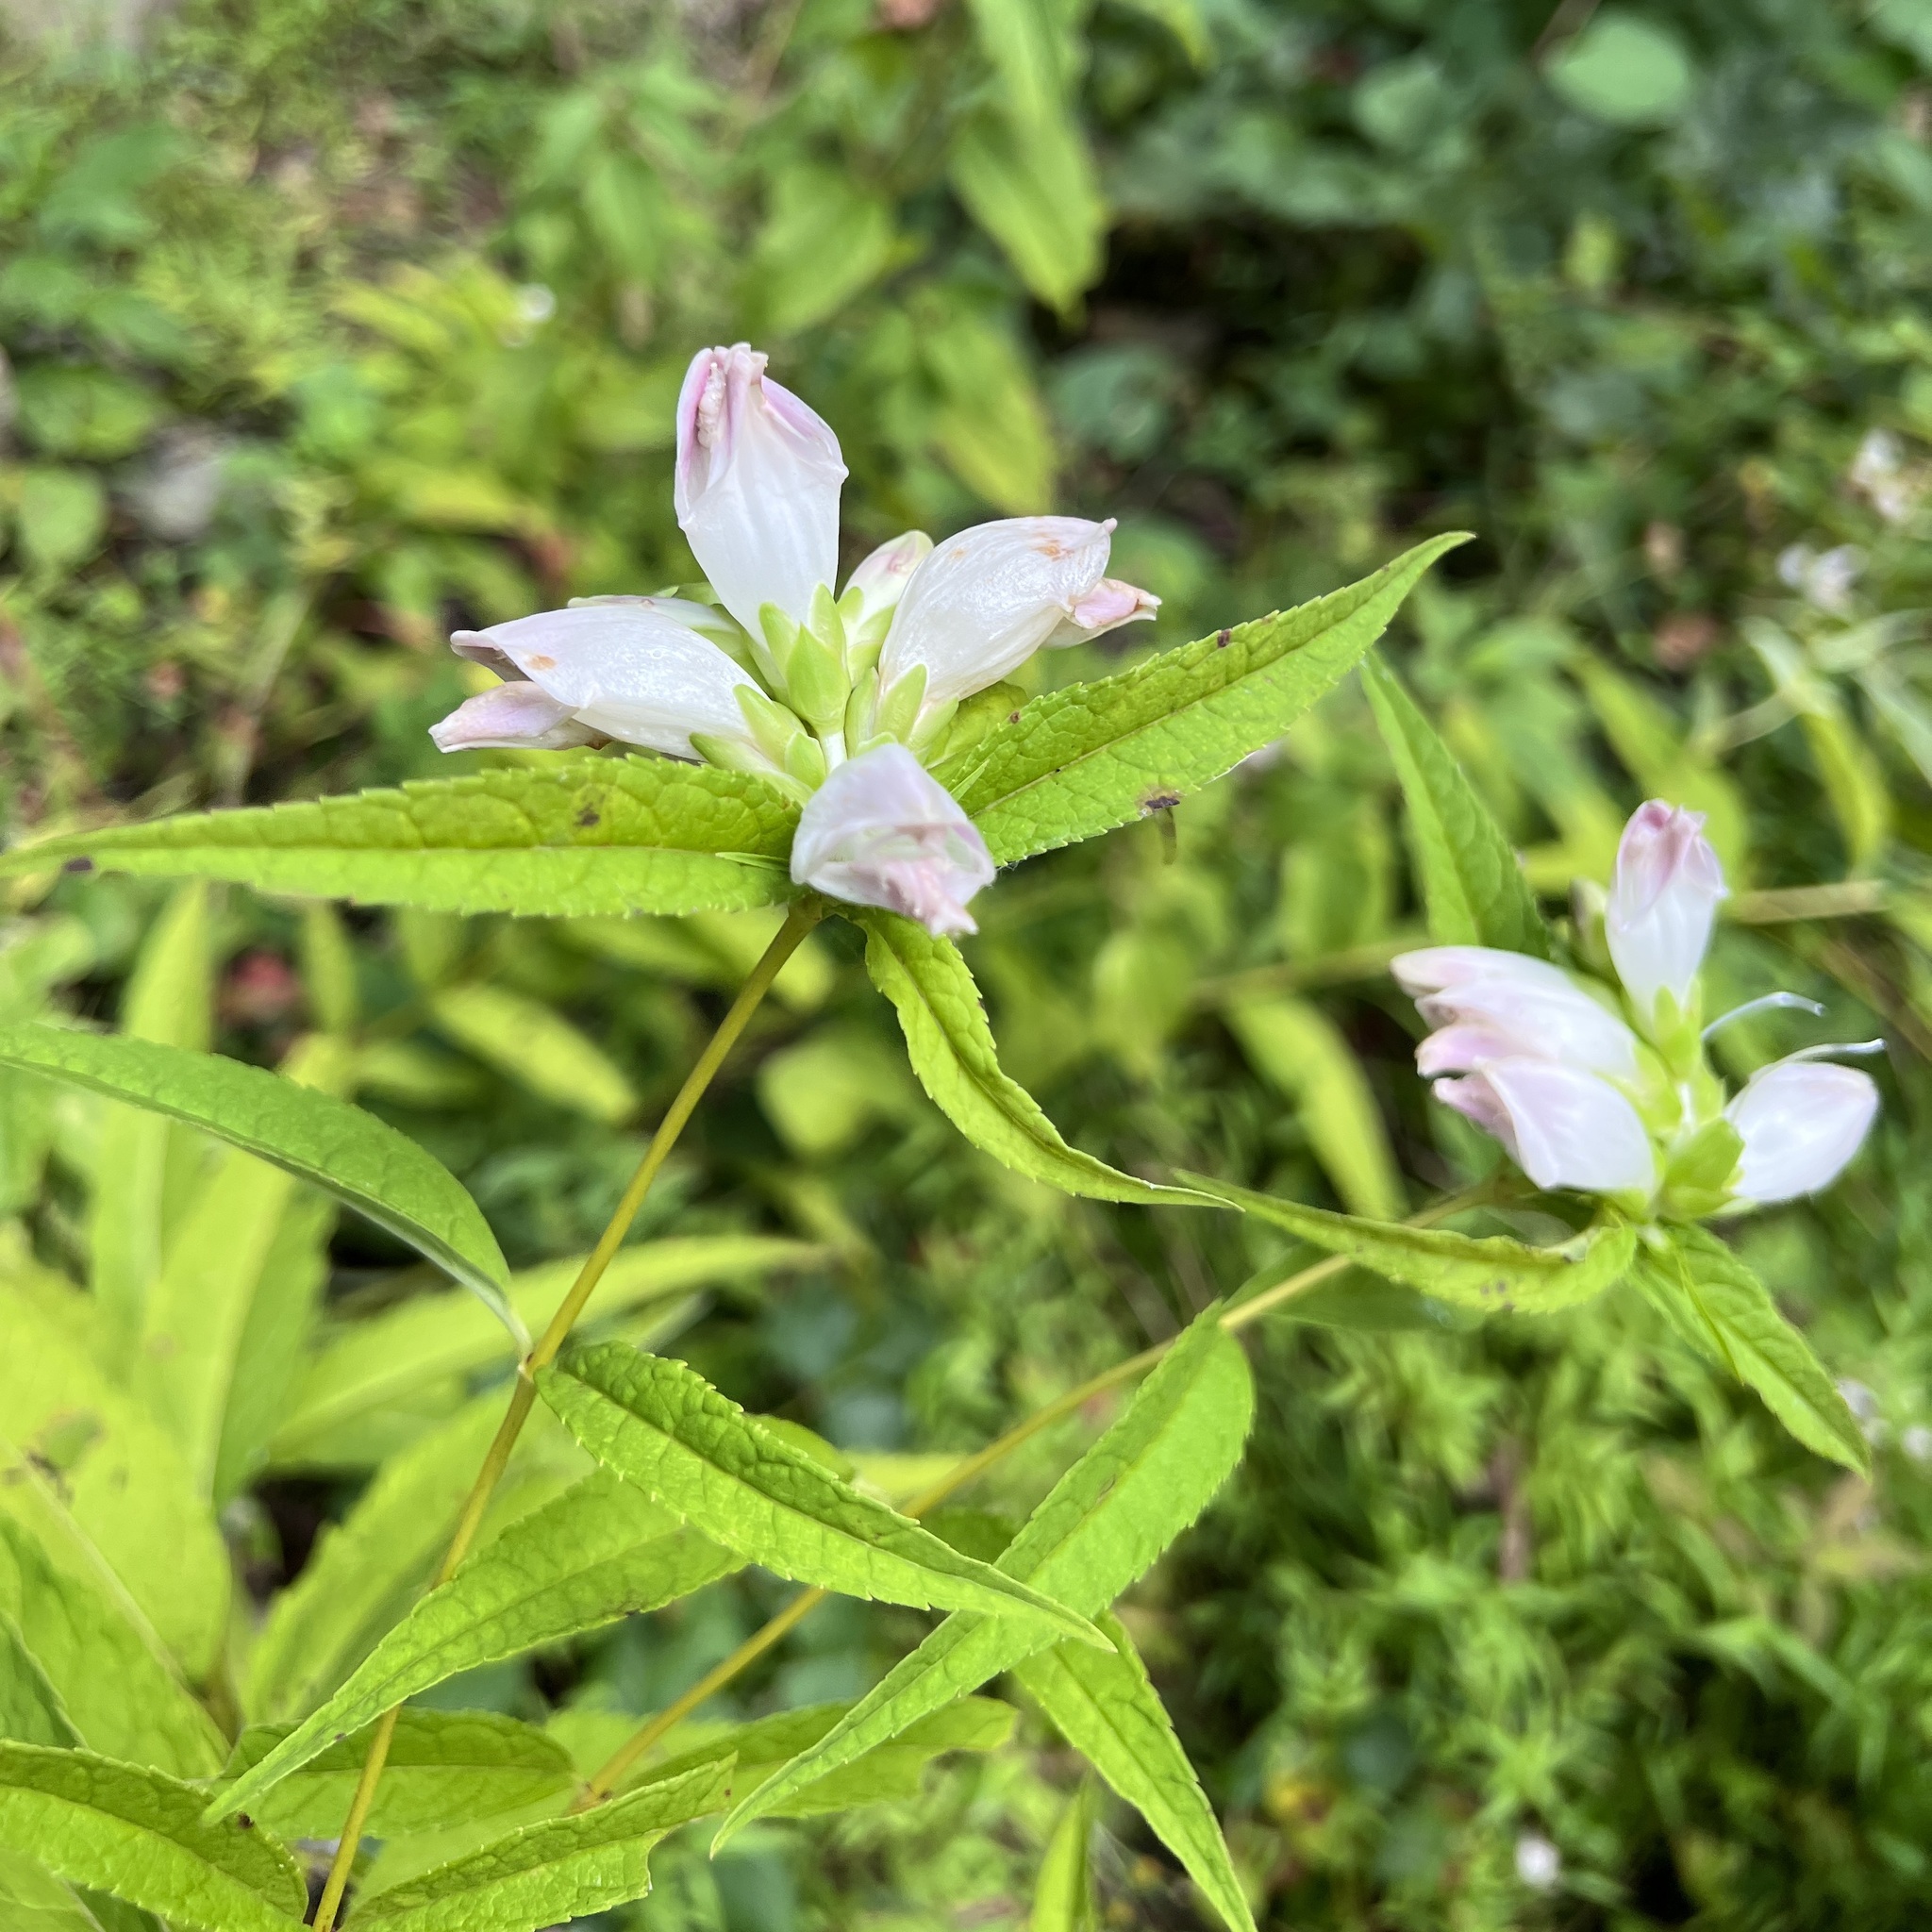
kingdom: Plantae
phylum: Tracheophyta
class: Magnoliopsida
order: Lamiales
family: Plantaginaceae
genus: Chelone
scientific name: Chelone glabra
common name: Snakehead
